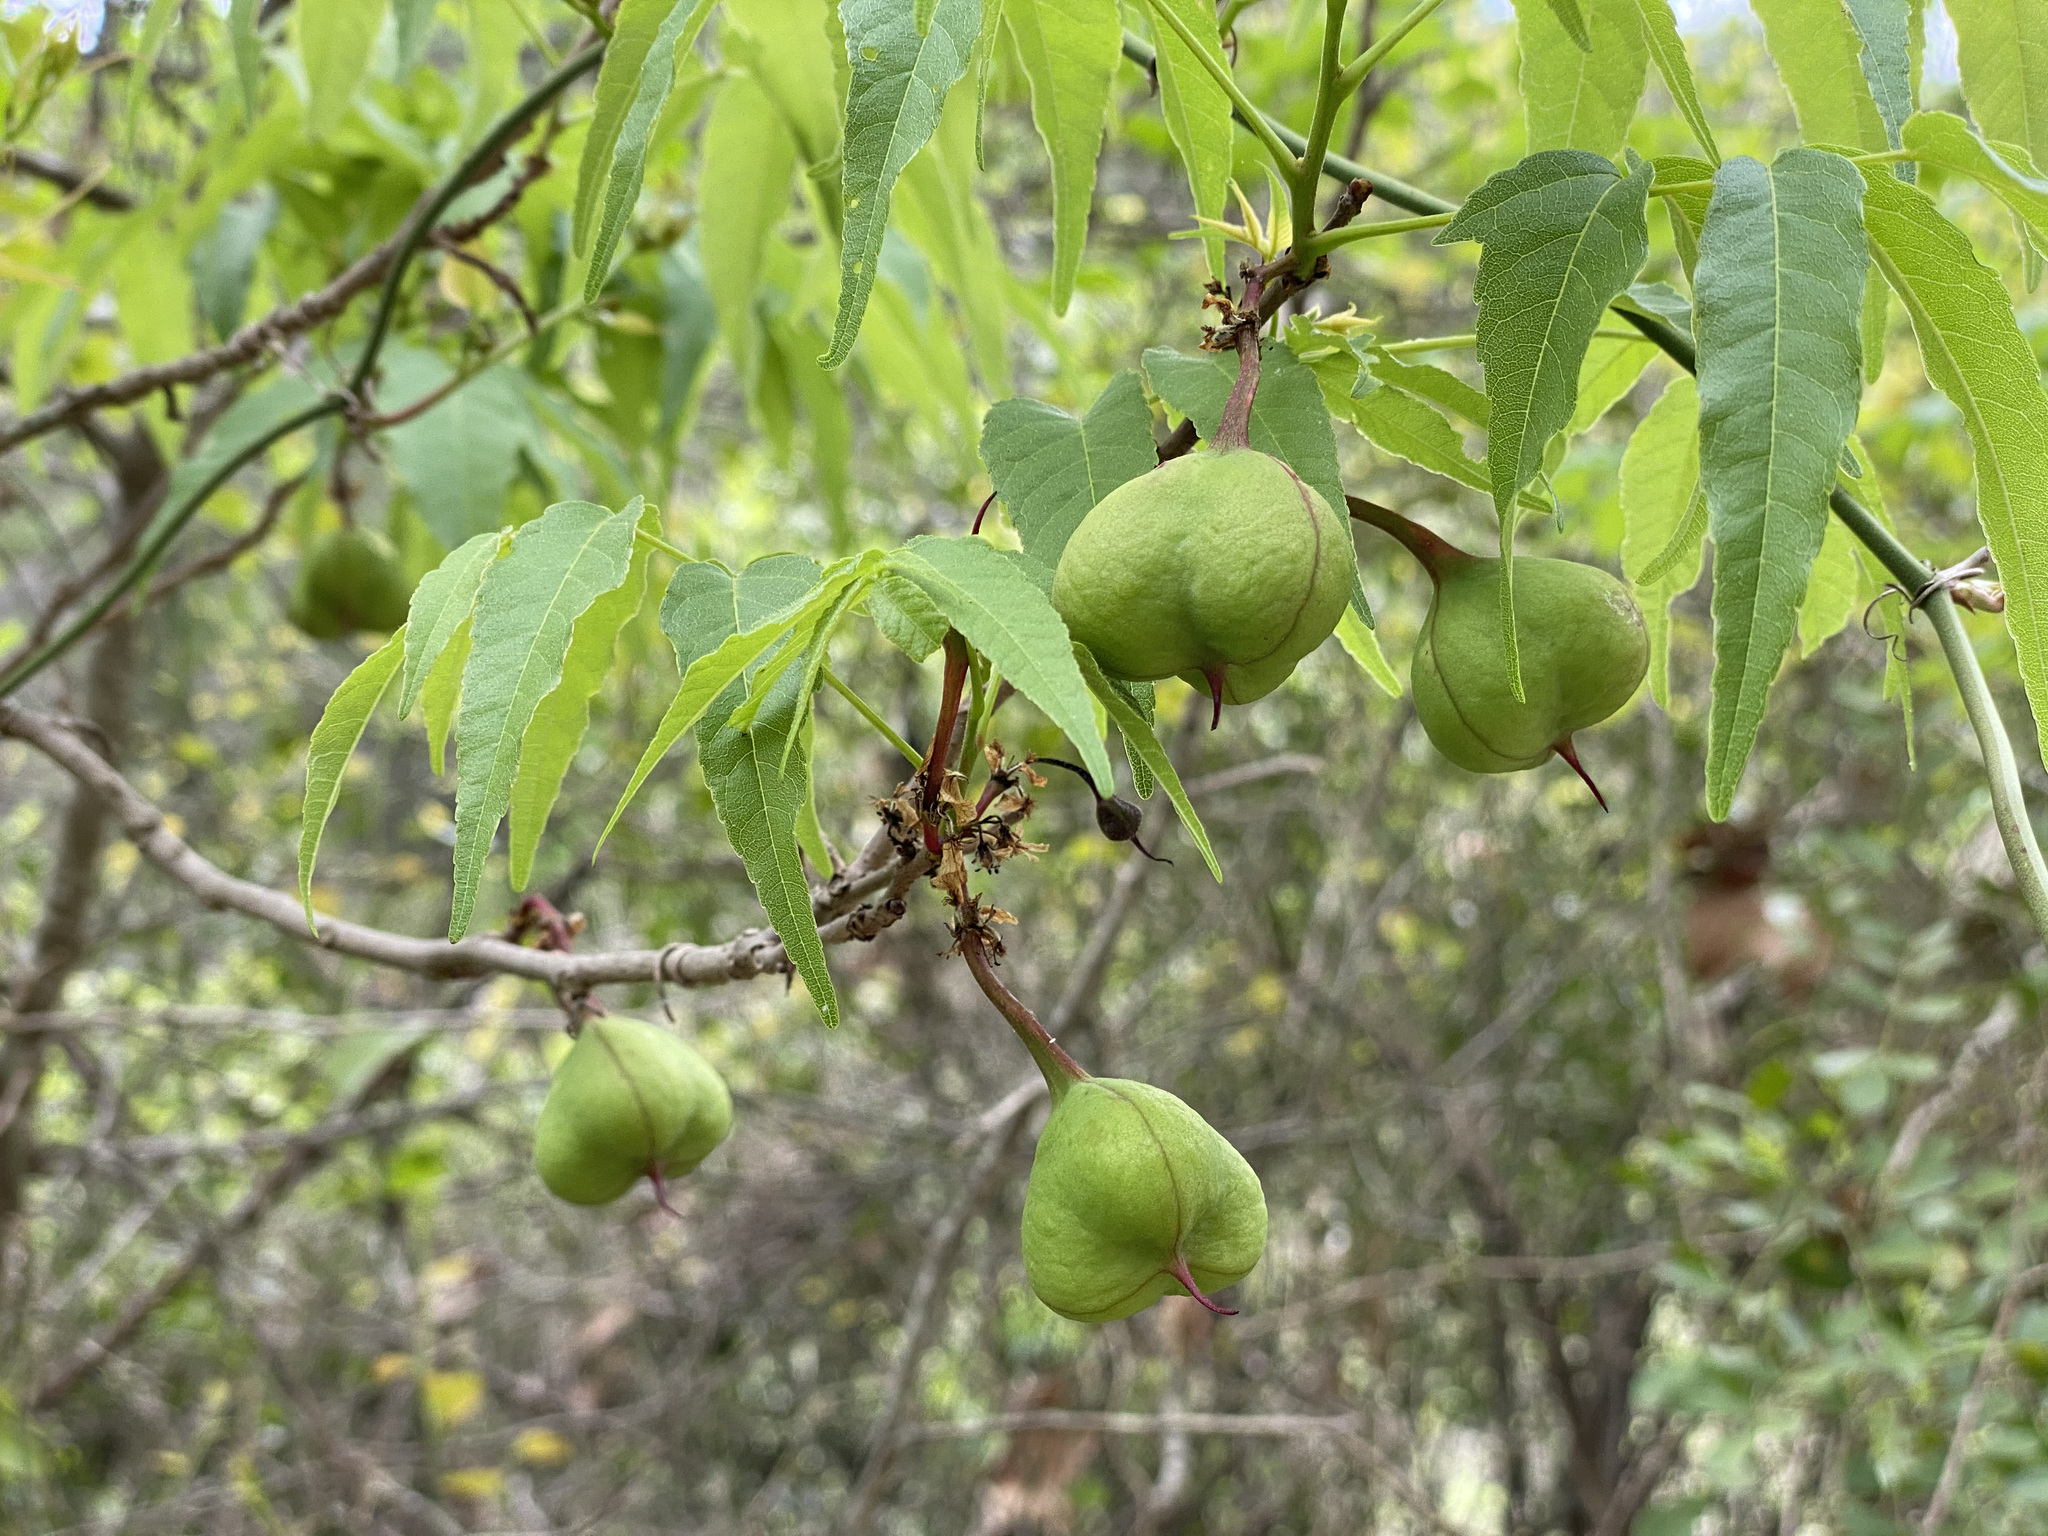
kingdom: Plantae
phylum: Tracheophyta
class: Magnoliopsida
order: Sapindales
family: Sapindaceae
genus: Ungnadia
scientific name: Ungnadia speciosa
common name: Texas-buckeye
